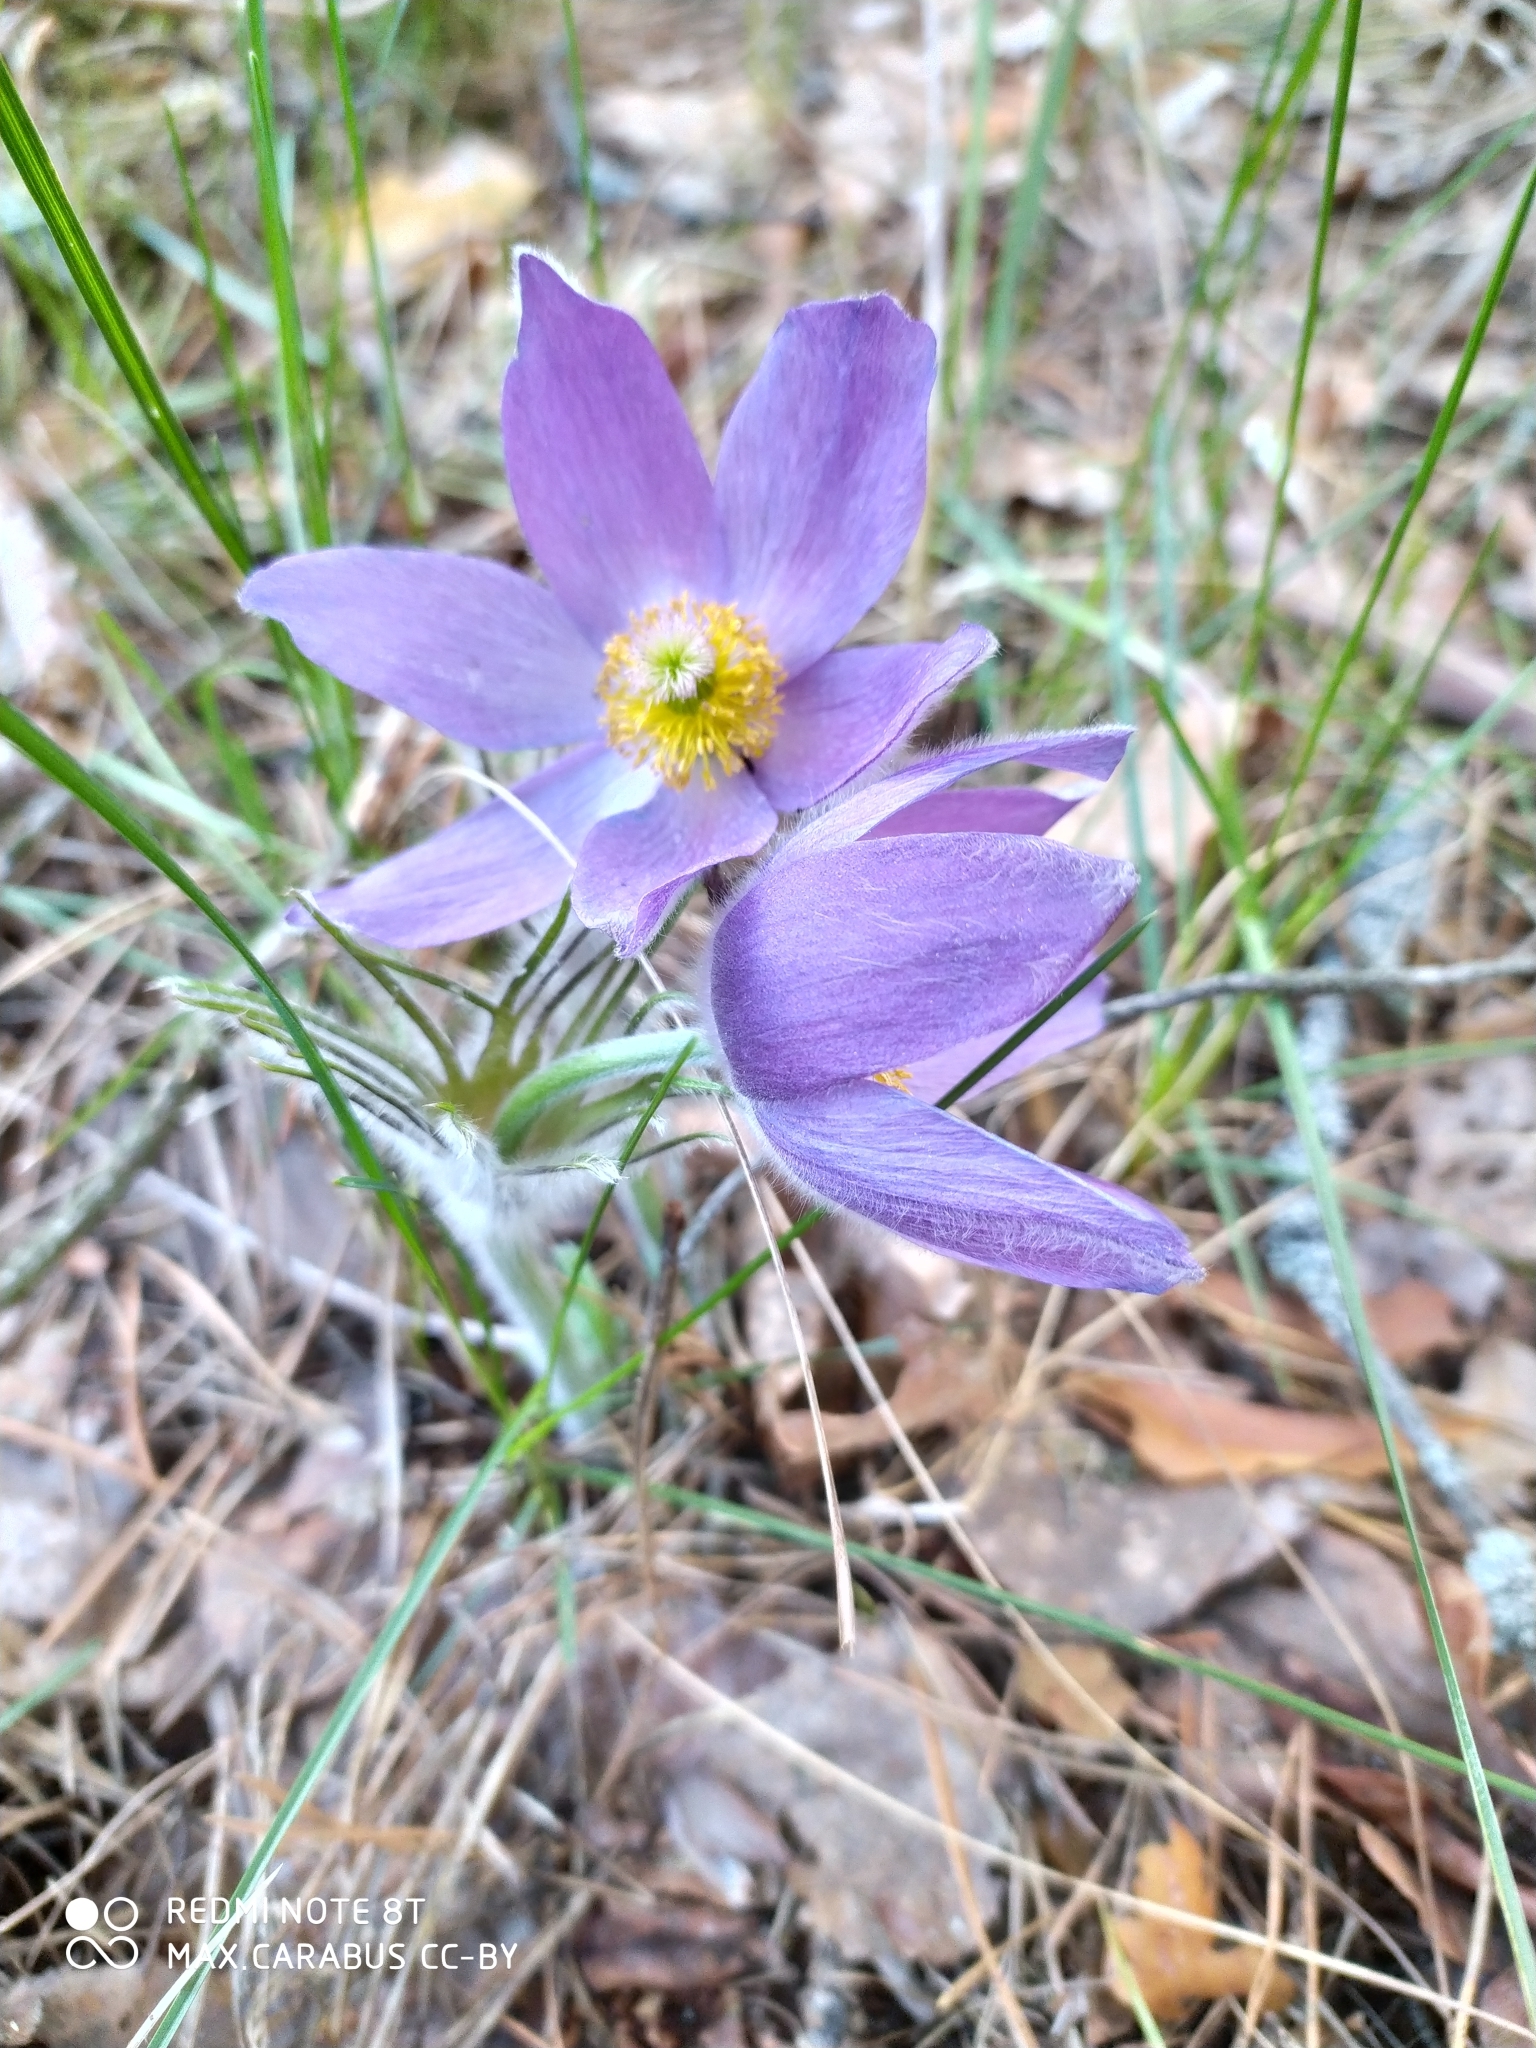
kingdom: Plantae
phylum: Tracheophyta
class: Magnoliopsida
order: Ranunculales
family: Ranunculaceae
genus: Pulsatilla
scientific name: Pulsatilla patens
